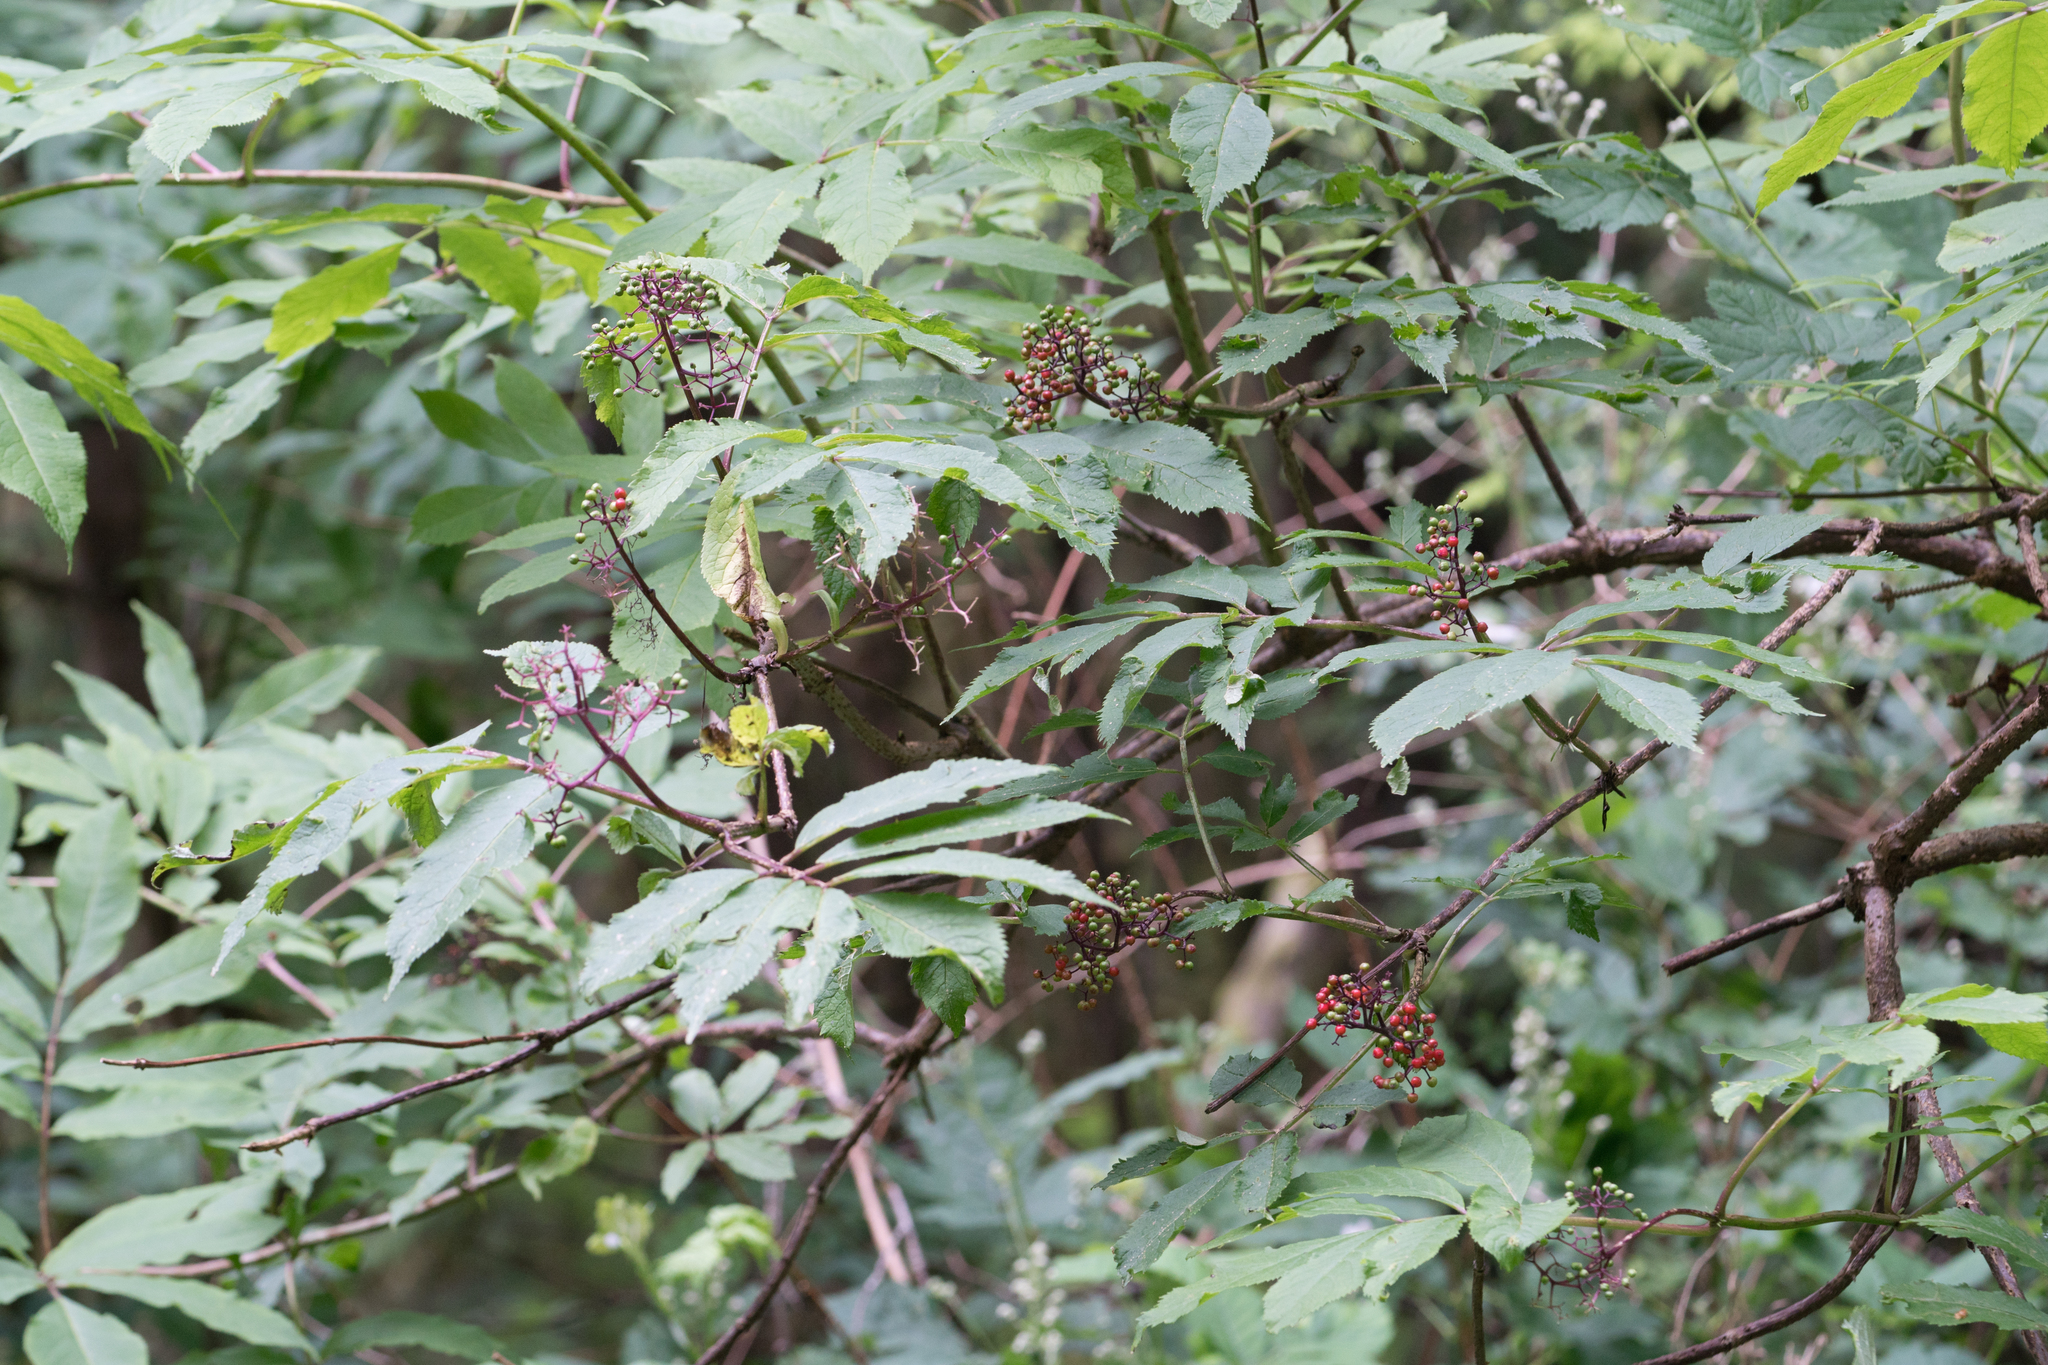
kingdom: Plantae
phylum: Tracheophyta
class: Magnoliopsida
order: Dipsacales
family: Viburnaceae
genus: Sambucus
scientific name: Sambucus racemosa
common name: Red-berried elder
